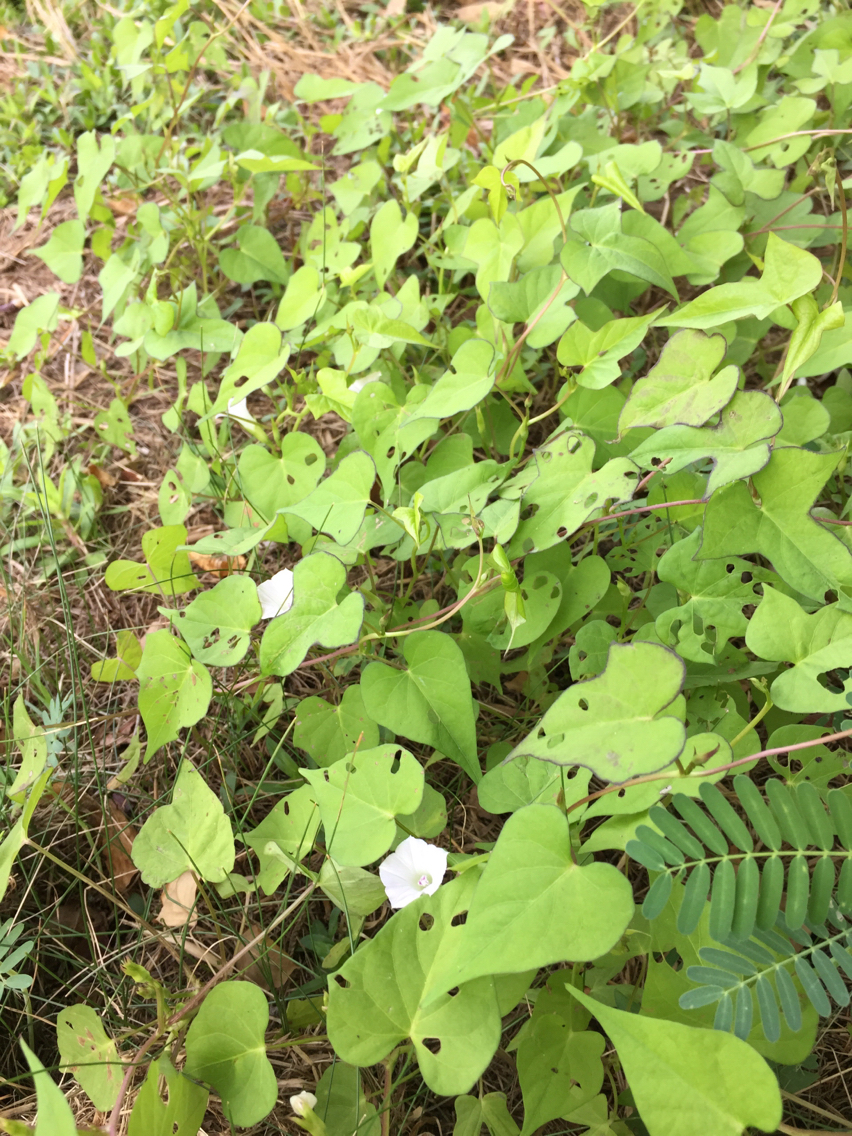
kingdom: Plantae
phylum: Tracheophyta
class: Magnoliopsida
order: Solanales
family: Convolvulaceae
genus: Ipomoea
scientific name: Ipomoea lacunosa
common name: White morning-glory
